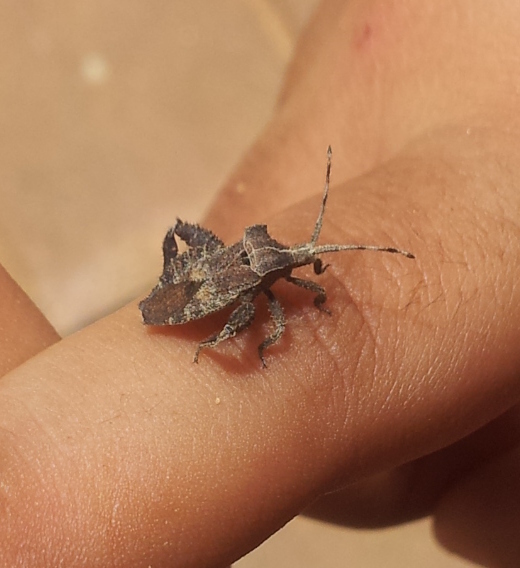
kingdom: Animalia
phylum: Arthropoda
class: Insecta
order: Hemiptera
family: Coreidae
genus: Petalocnemis
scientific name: Petalocnemis obscura
